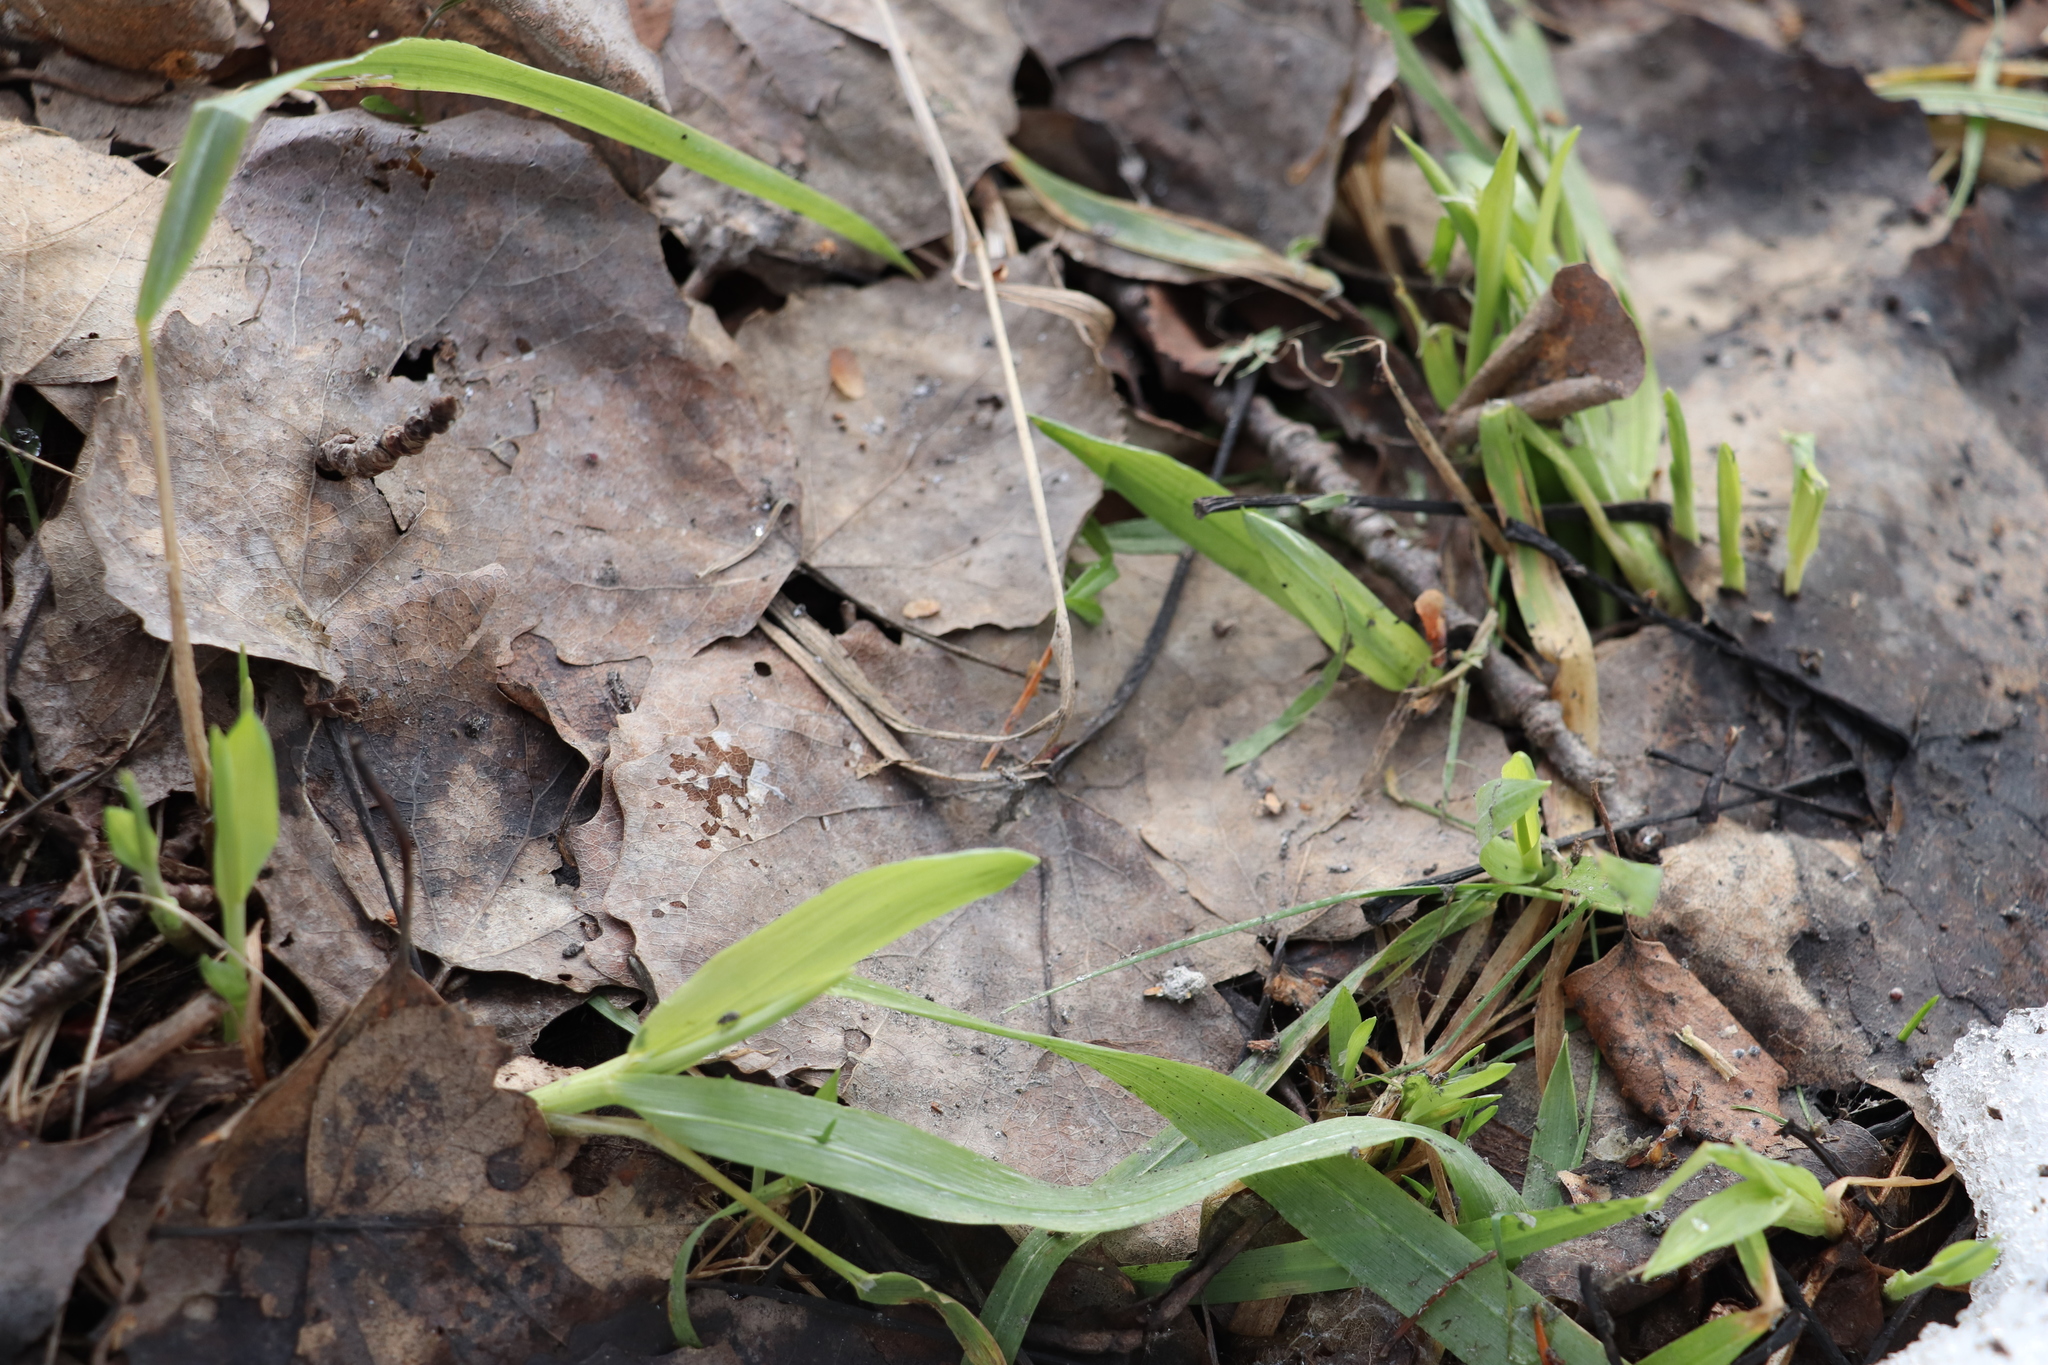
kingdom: Plantae
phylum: Tracheophyta
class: Liliopsida
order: Poales
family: Poaceae
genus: Milium
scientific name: Milium effusum
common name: Wood millet
